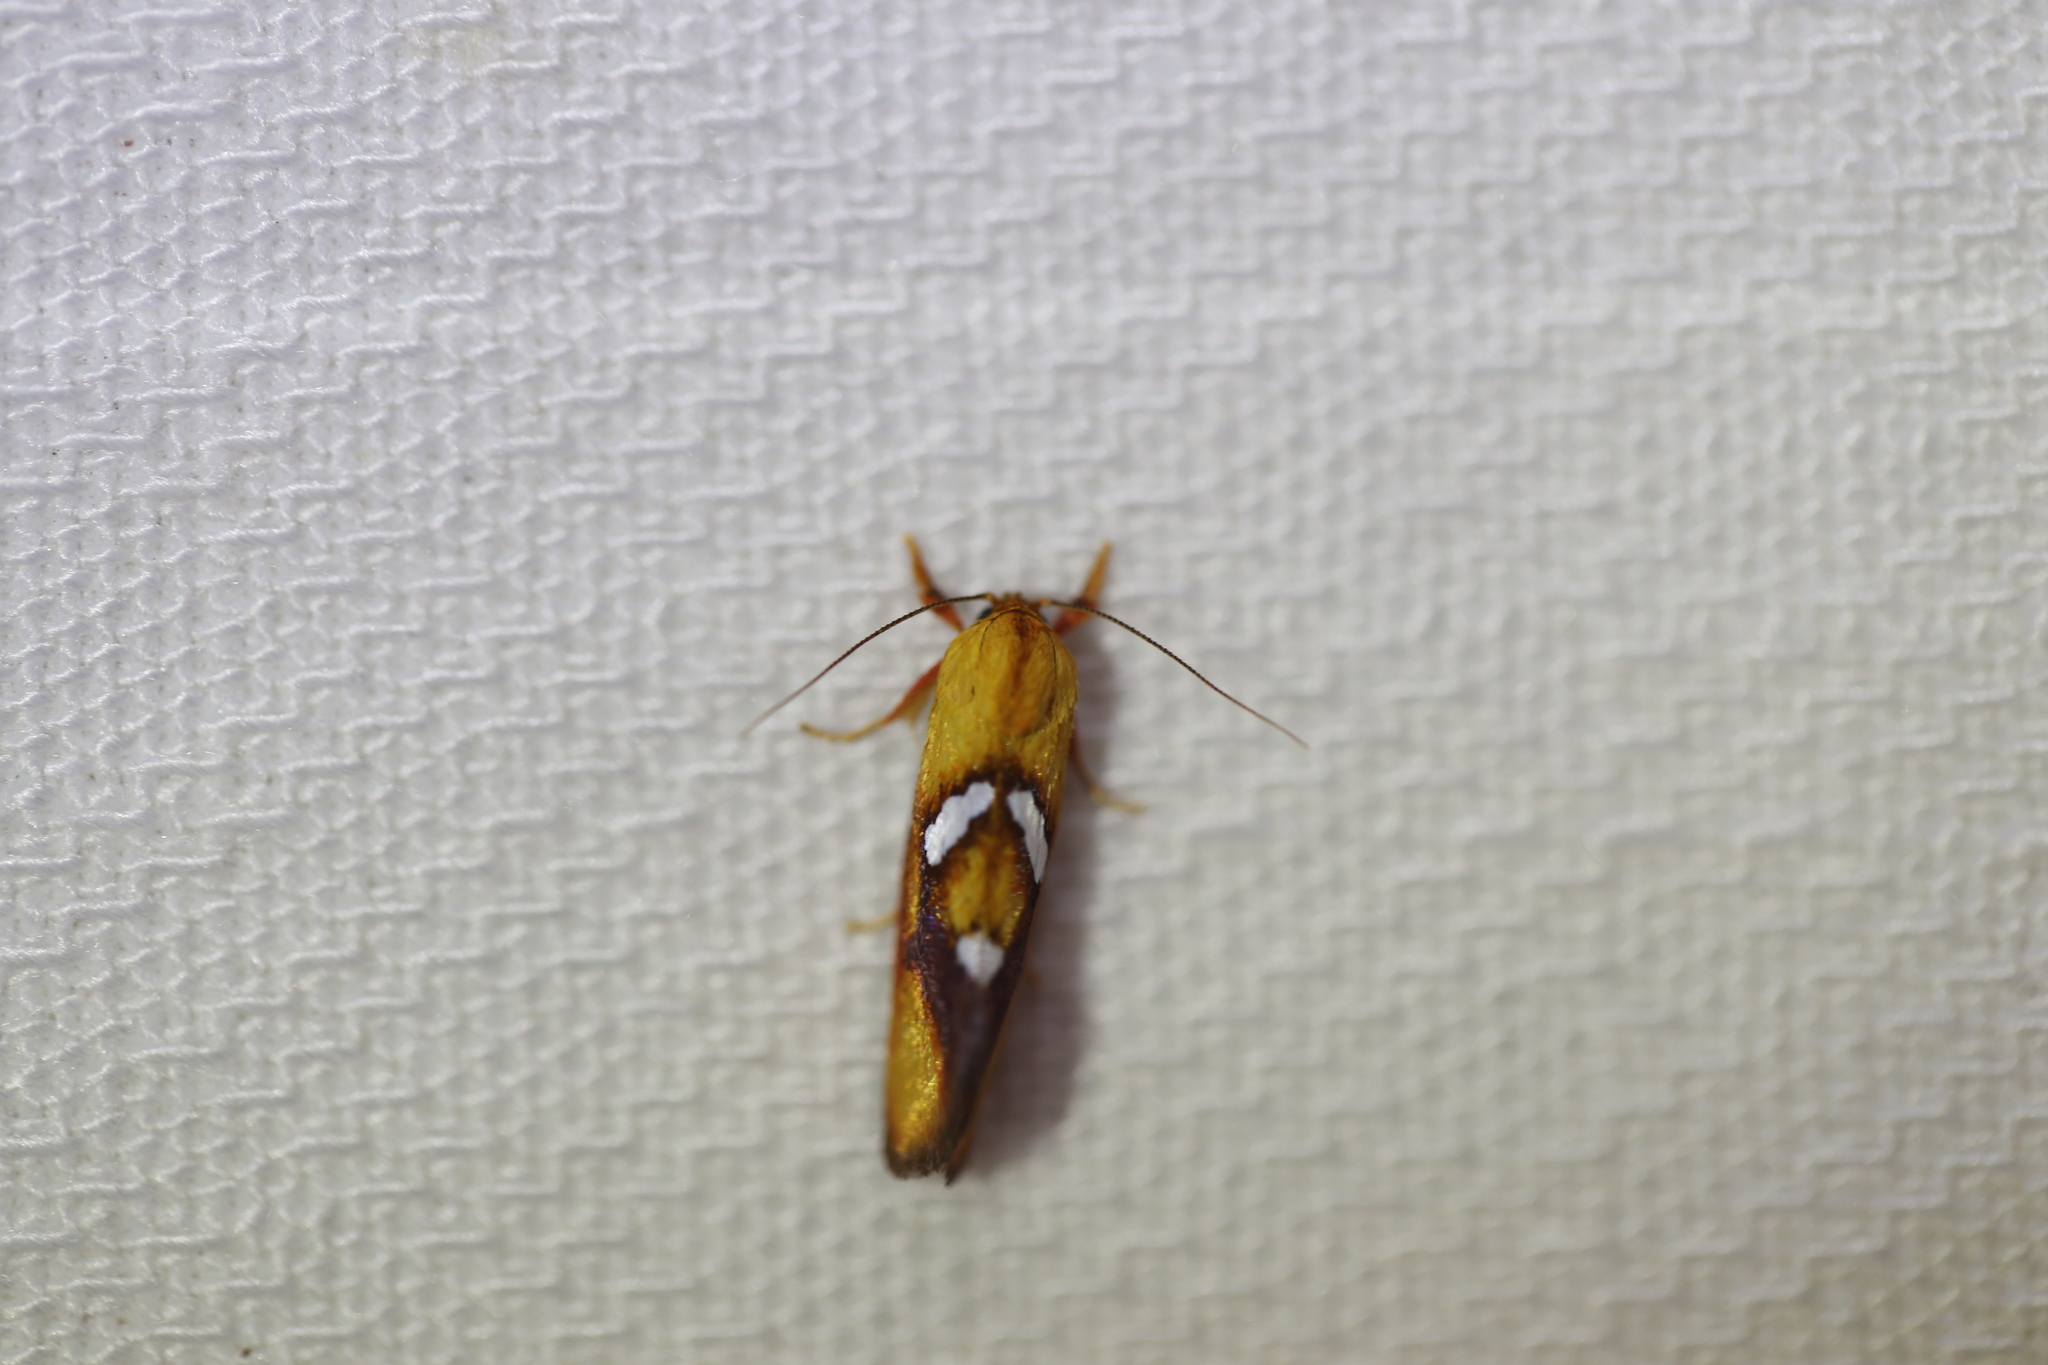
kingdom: Animalia
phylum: Arthropoda
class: Insecta
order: Lepidoptera
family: Oecophoridae
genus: Aristeis
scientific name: Aristeis hepialella
